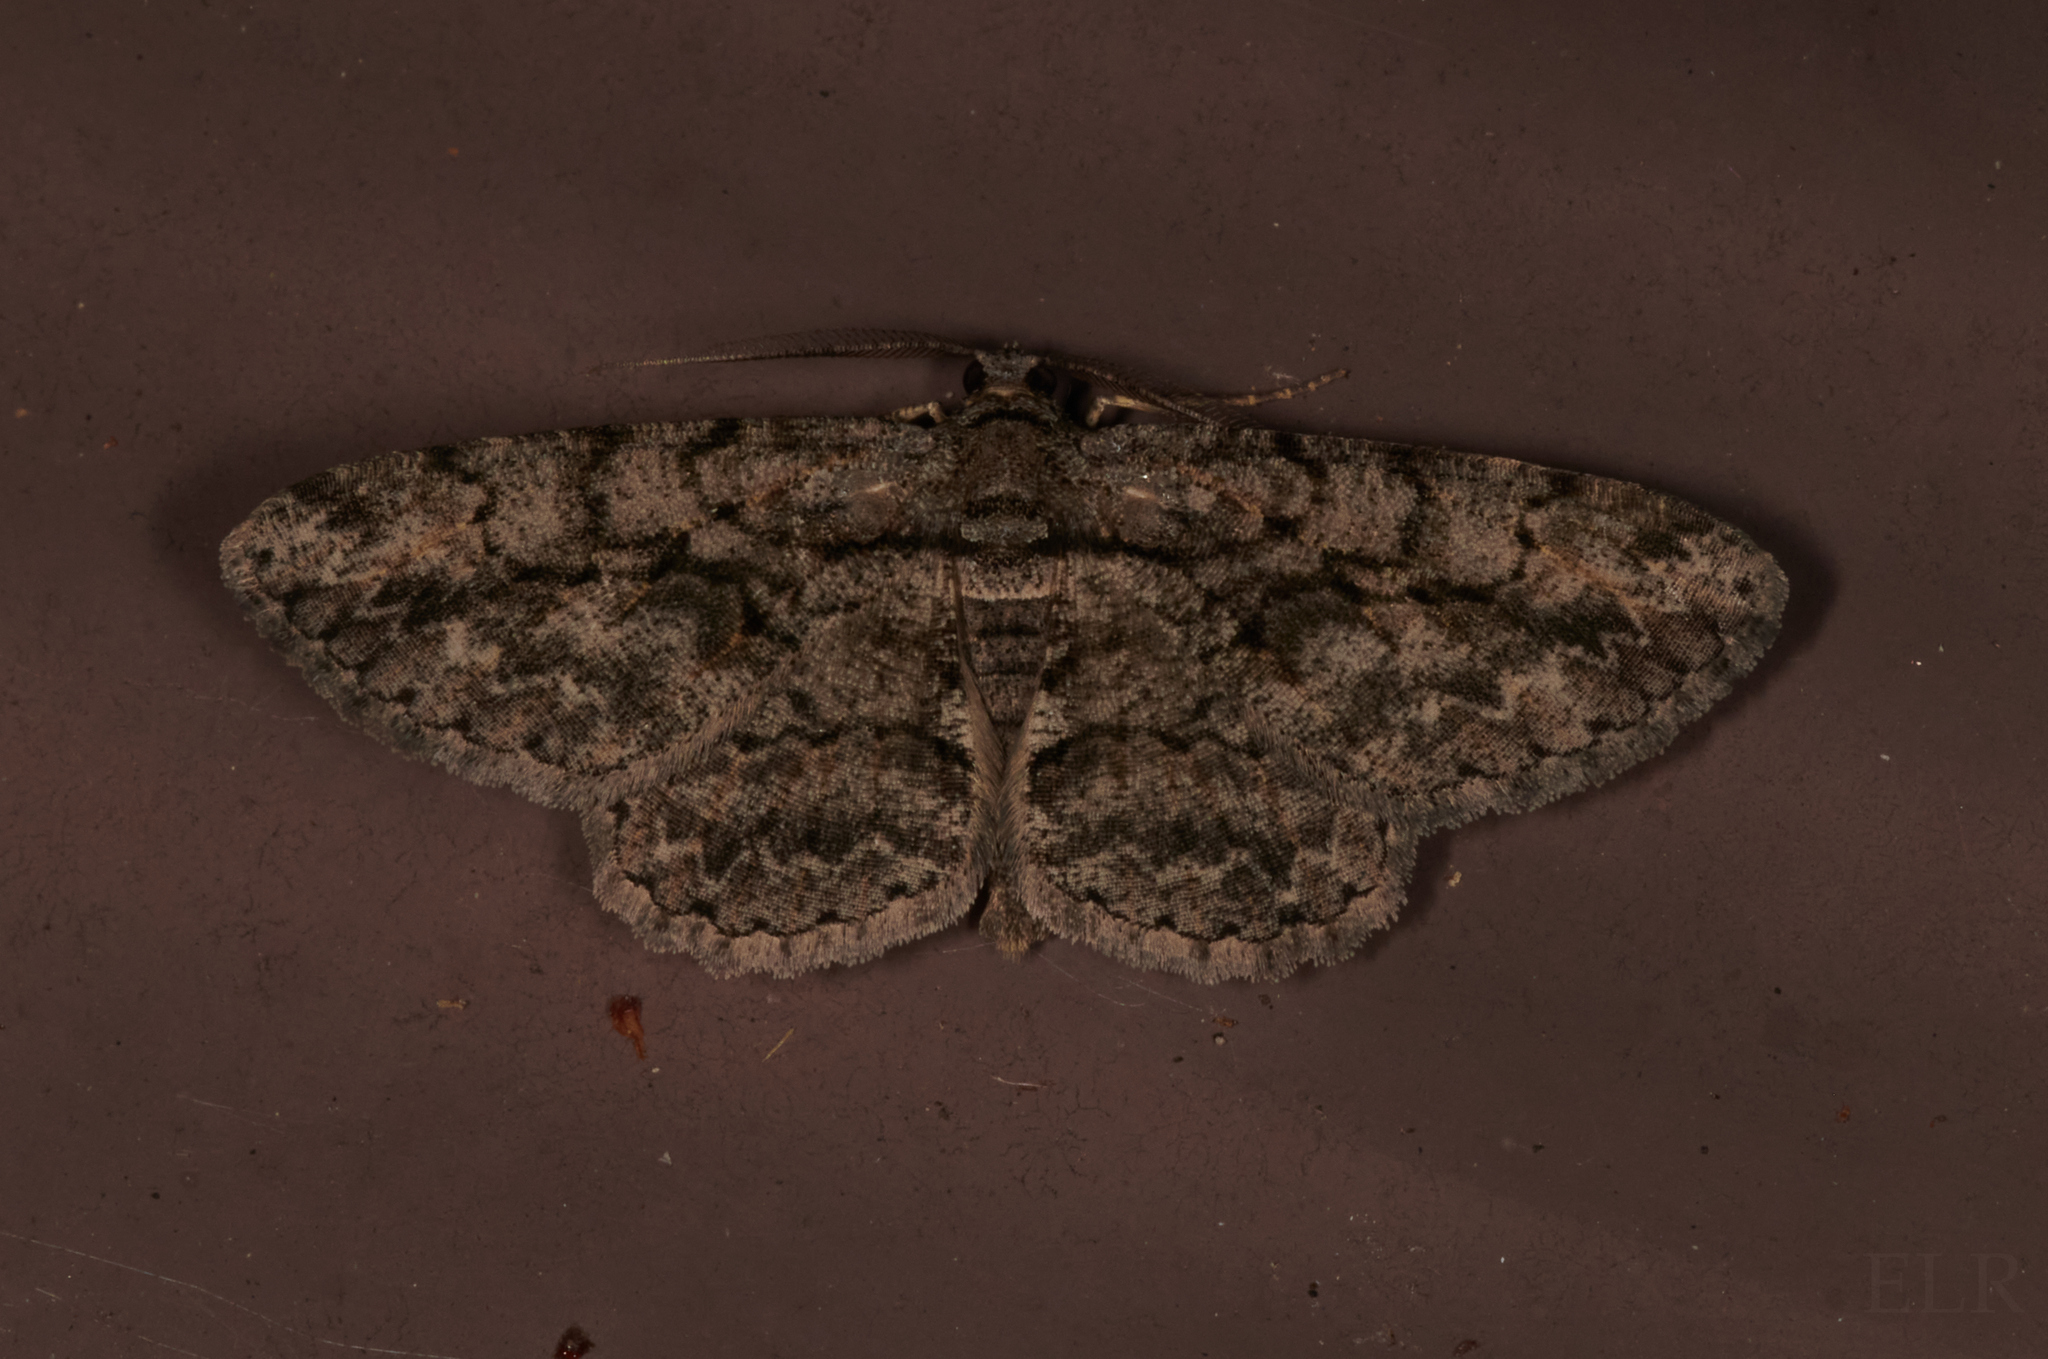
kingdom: Animalia
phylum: Arthropoda
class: Insecta
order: Lepidoptera
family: Geometridae
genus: Anavitrinella
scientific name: Anavitrinella pampinaria
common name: Common gray
